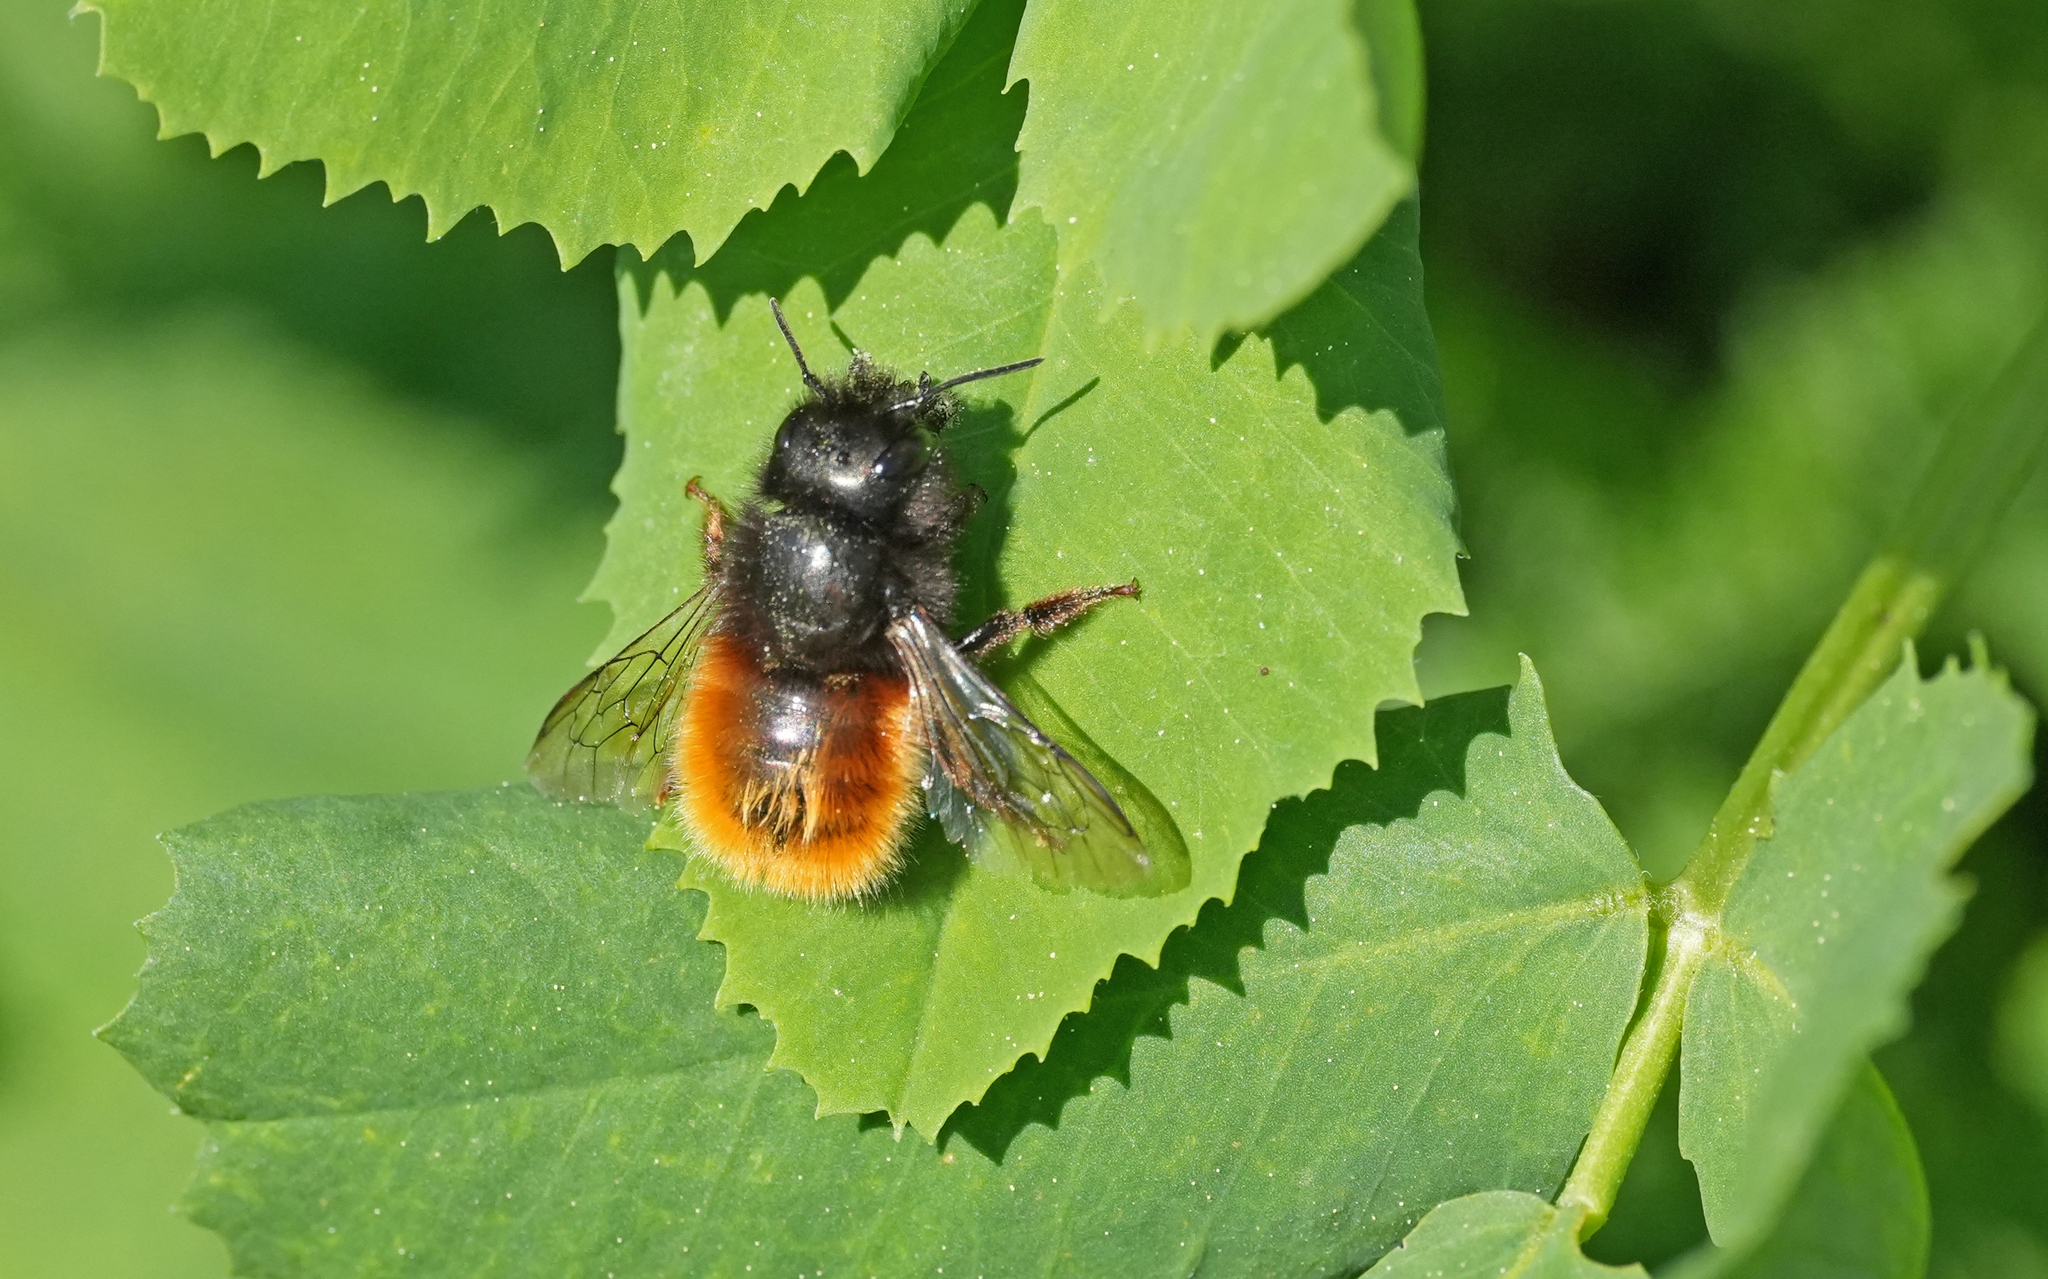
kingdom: Animalia
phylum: Arthropoda
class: Insecta
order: Hymenoptera
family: Megachilidae
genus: Osmia
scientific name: Osmia cornuta
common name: Mason bee
